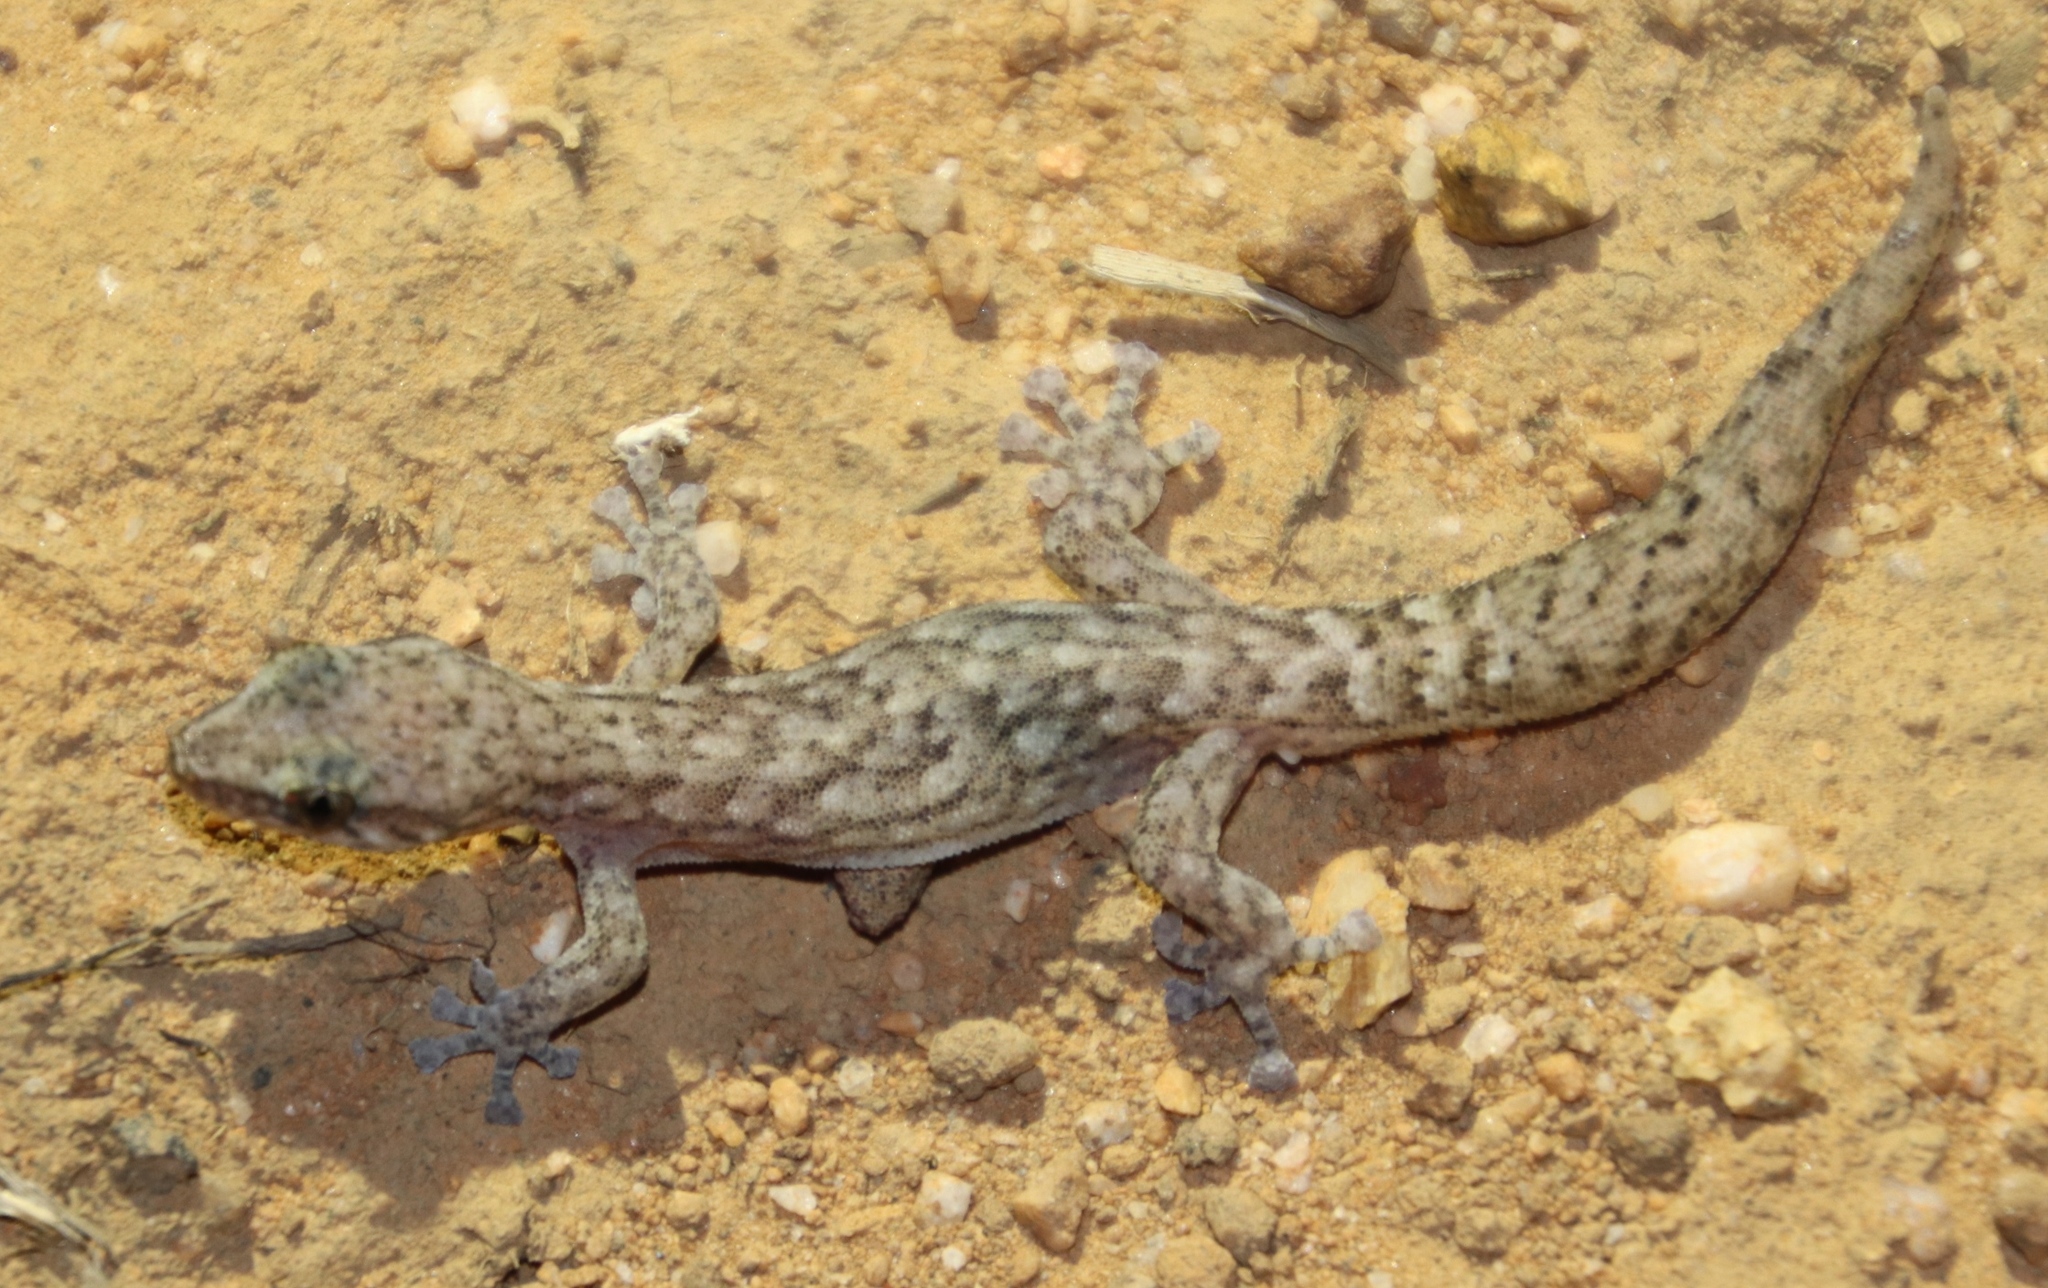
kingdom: Animalia
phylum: Chordata
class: Squamata
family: Gekkonidae
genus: Afrogecko
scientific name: Afrogecko porphyreus
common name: Marbled leaf-toed gecko
